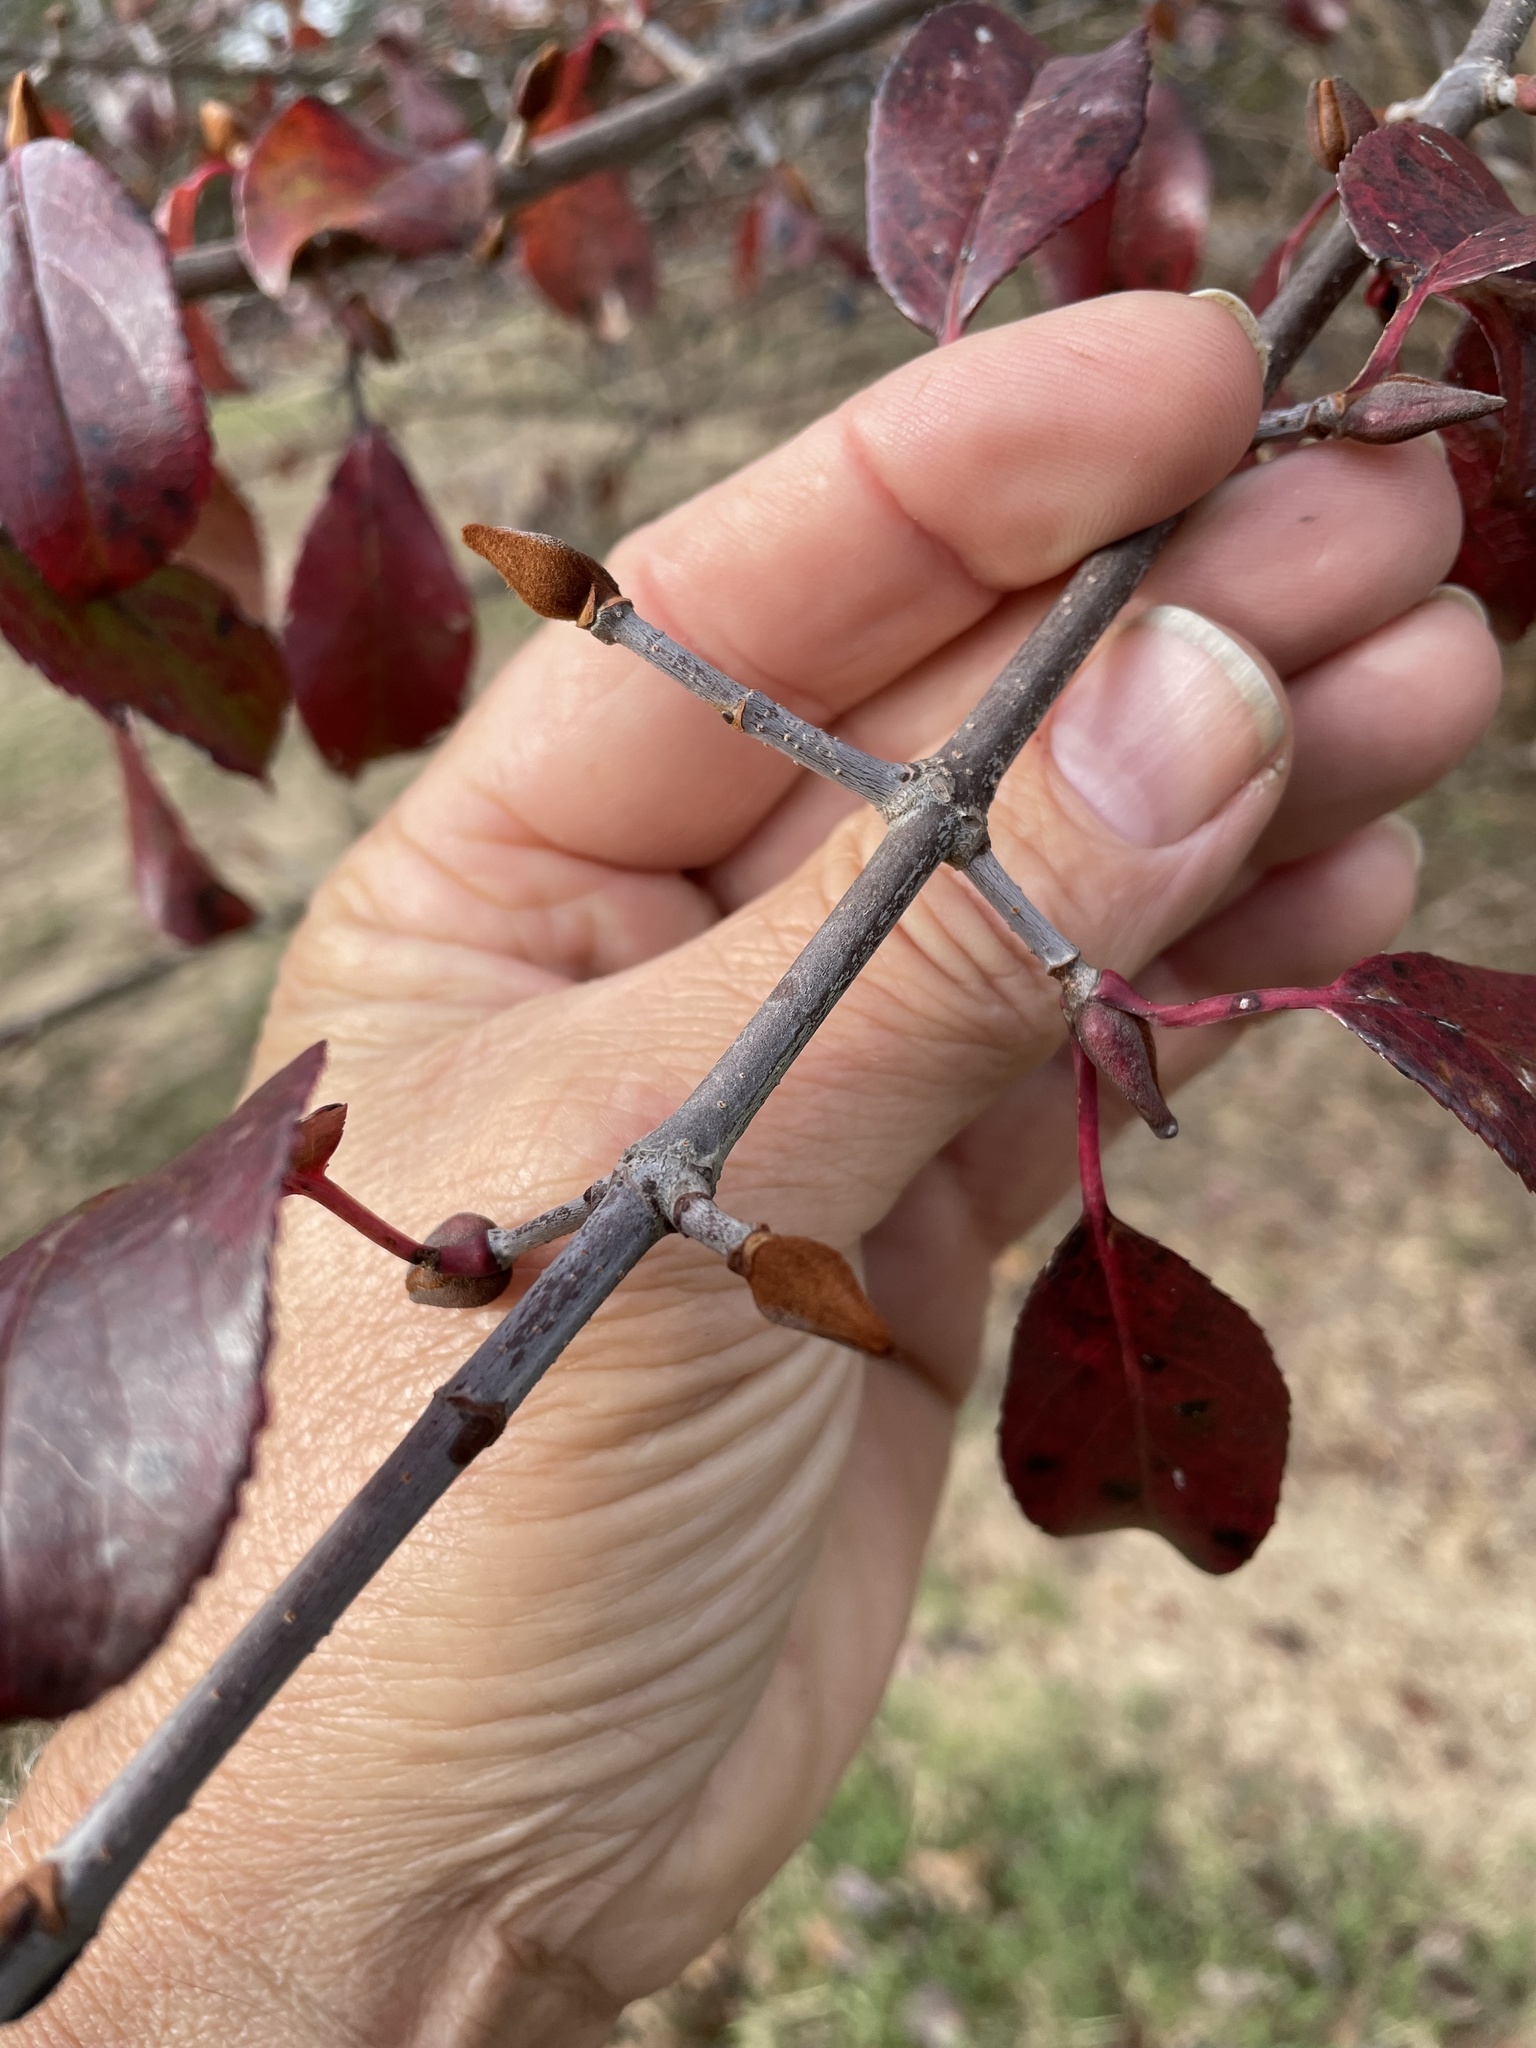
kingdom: Plantae
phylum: Tracheophyta
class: Magnoliopsida
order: Dipsacales
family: Viburnaceae
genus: Viburnum
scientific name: Viburnum rufidulum
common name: Blue haw
